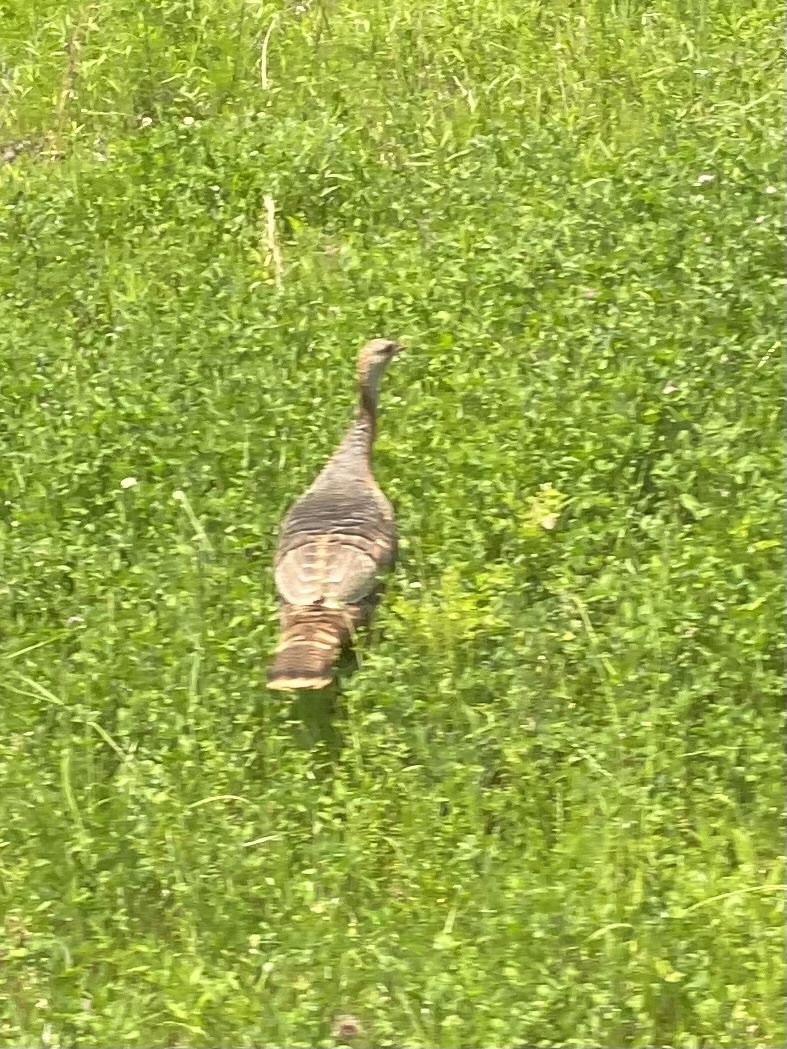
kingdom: Animalia
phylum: Chordata
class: Aves
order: Galliformes
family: Phasianidae
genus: Meleagris
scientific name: Meleagris gallopavo
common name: Wild turkey
